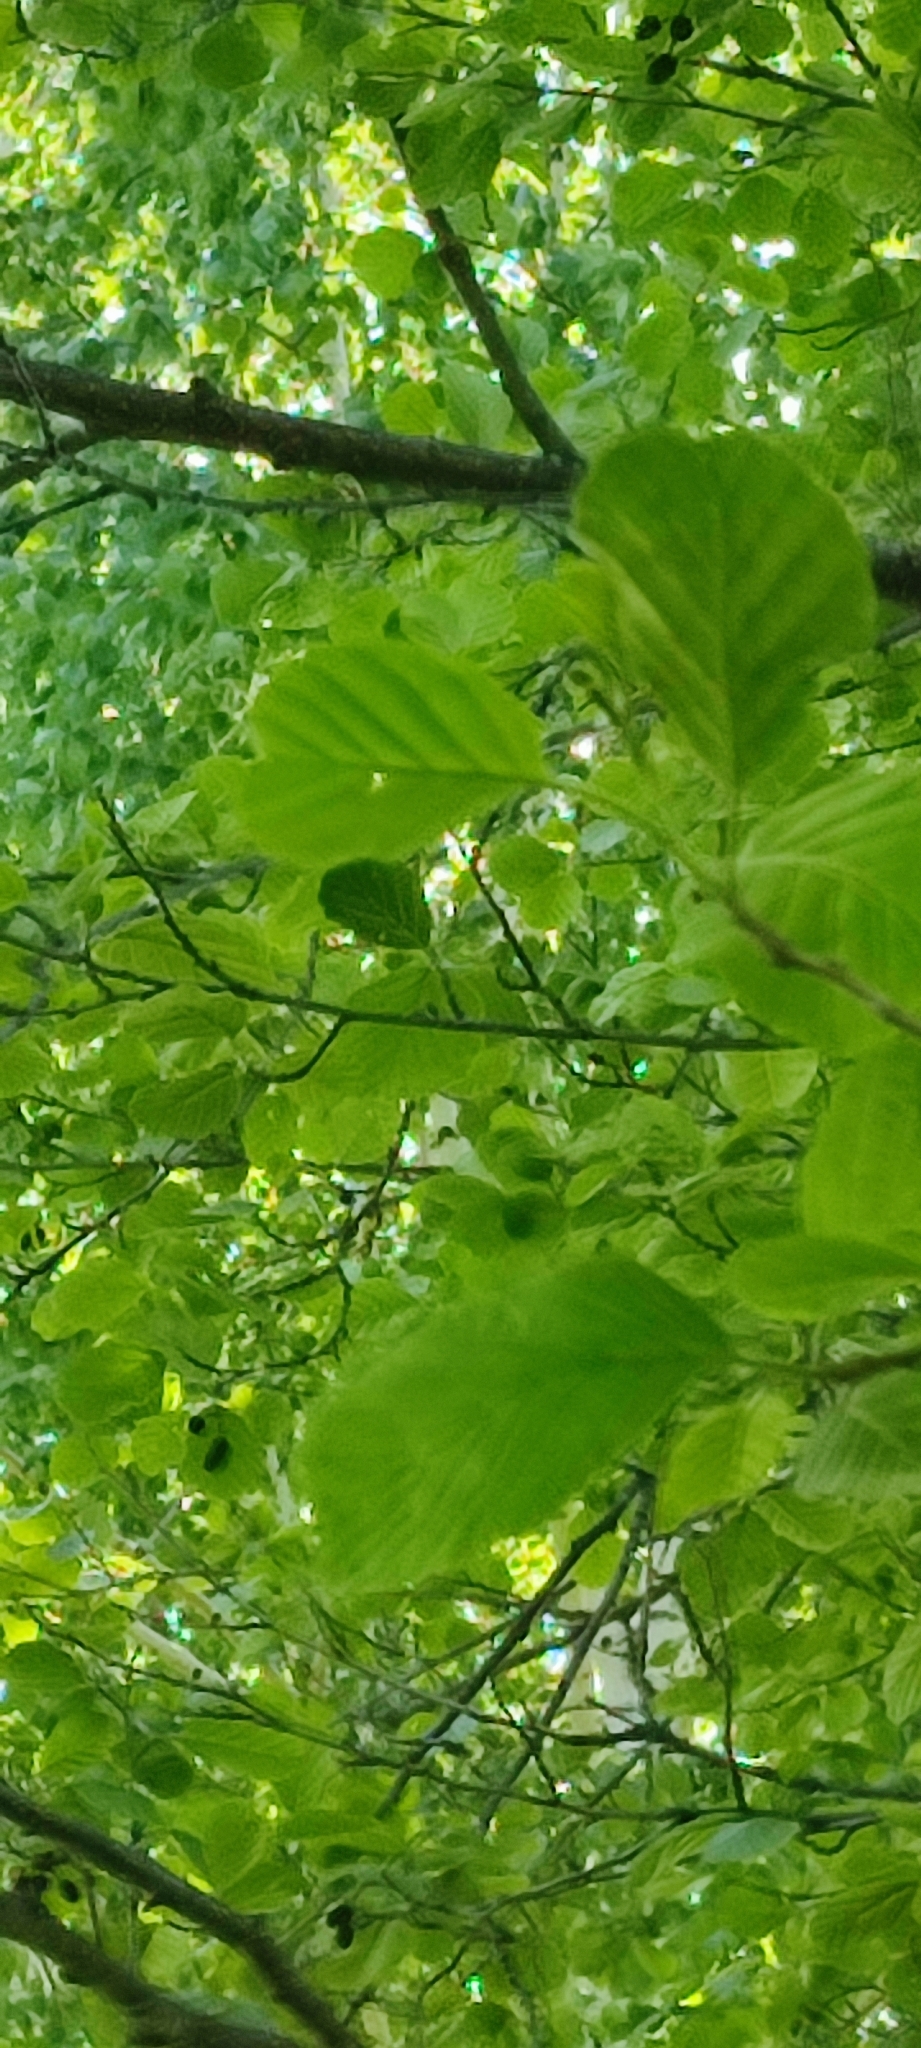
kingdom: Plantae
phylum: Tracheophyta
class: Magnoliopsida
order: Fagales
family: Betulaceae
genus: Alnus
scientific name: Alnus glutinosa
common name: Black alder
